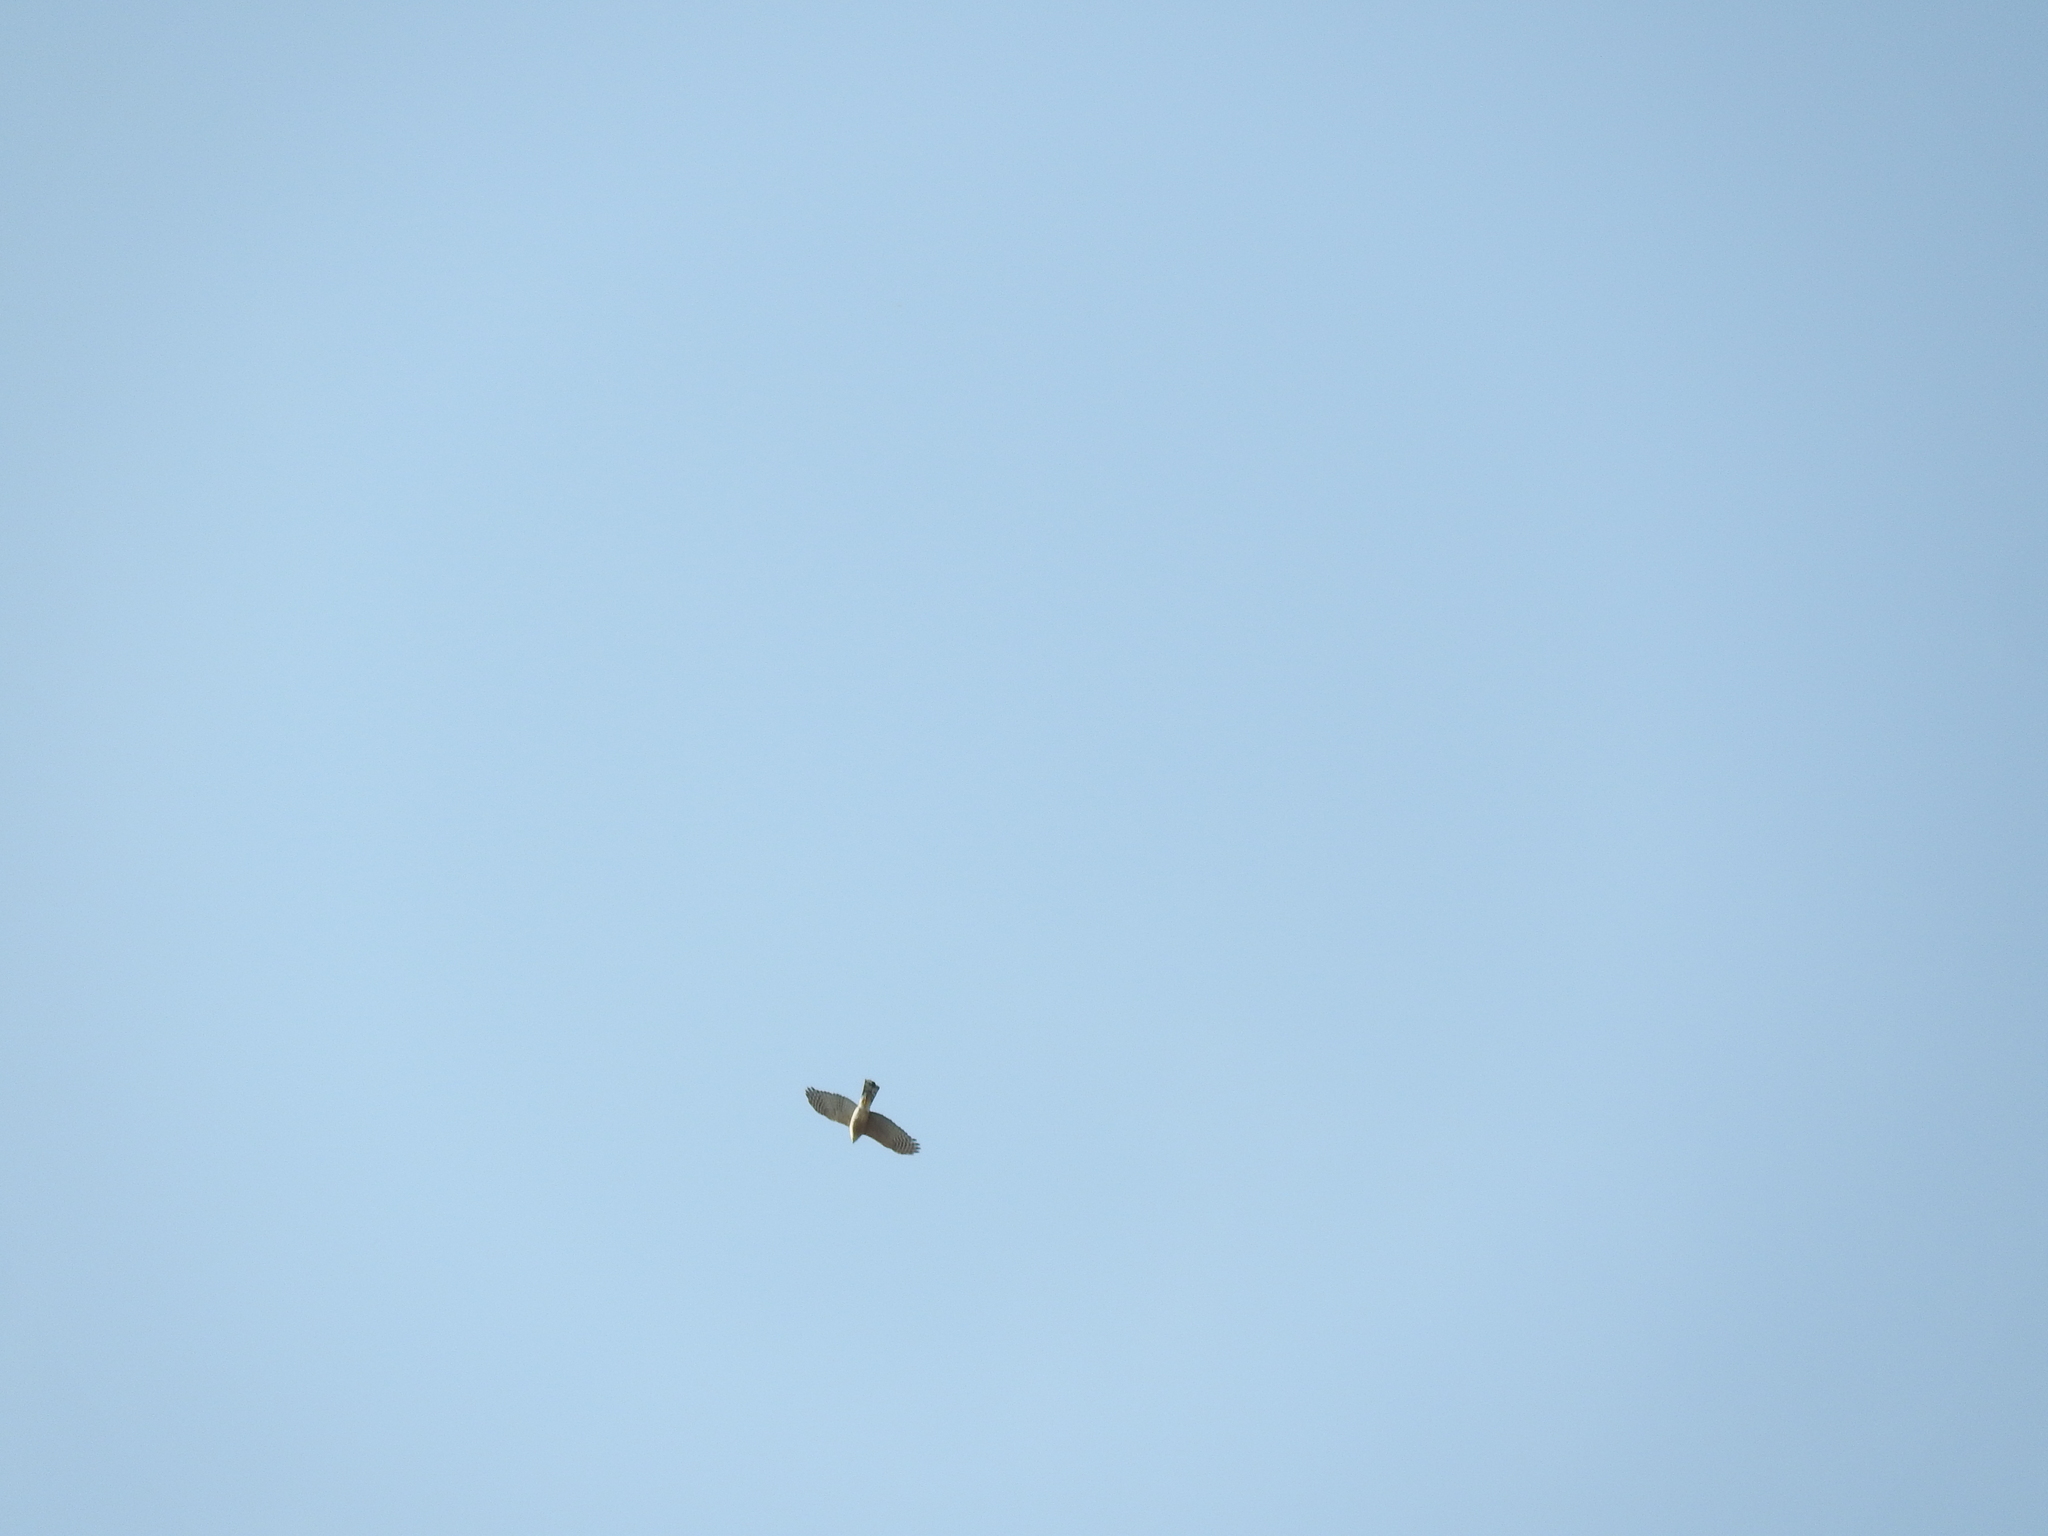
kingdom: Animalia
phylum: Chordata
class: Aves
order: Accipitriformes
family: Accipitridae
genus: Accipiter
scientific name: Accipiter cooperii
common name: Cooper's hawk
